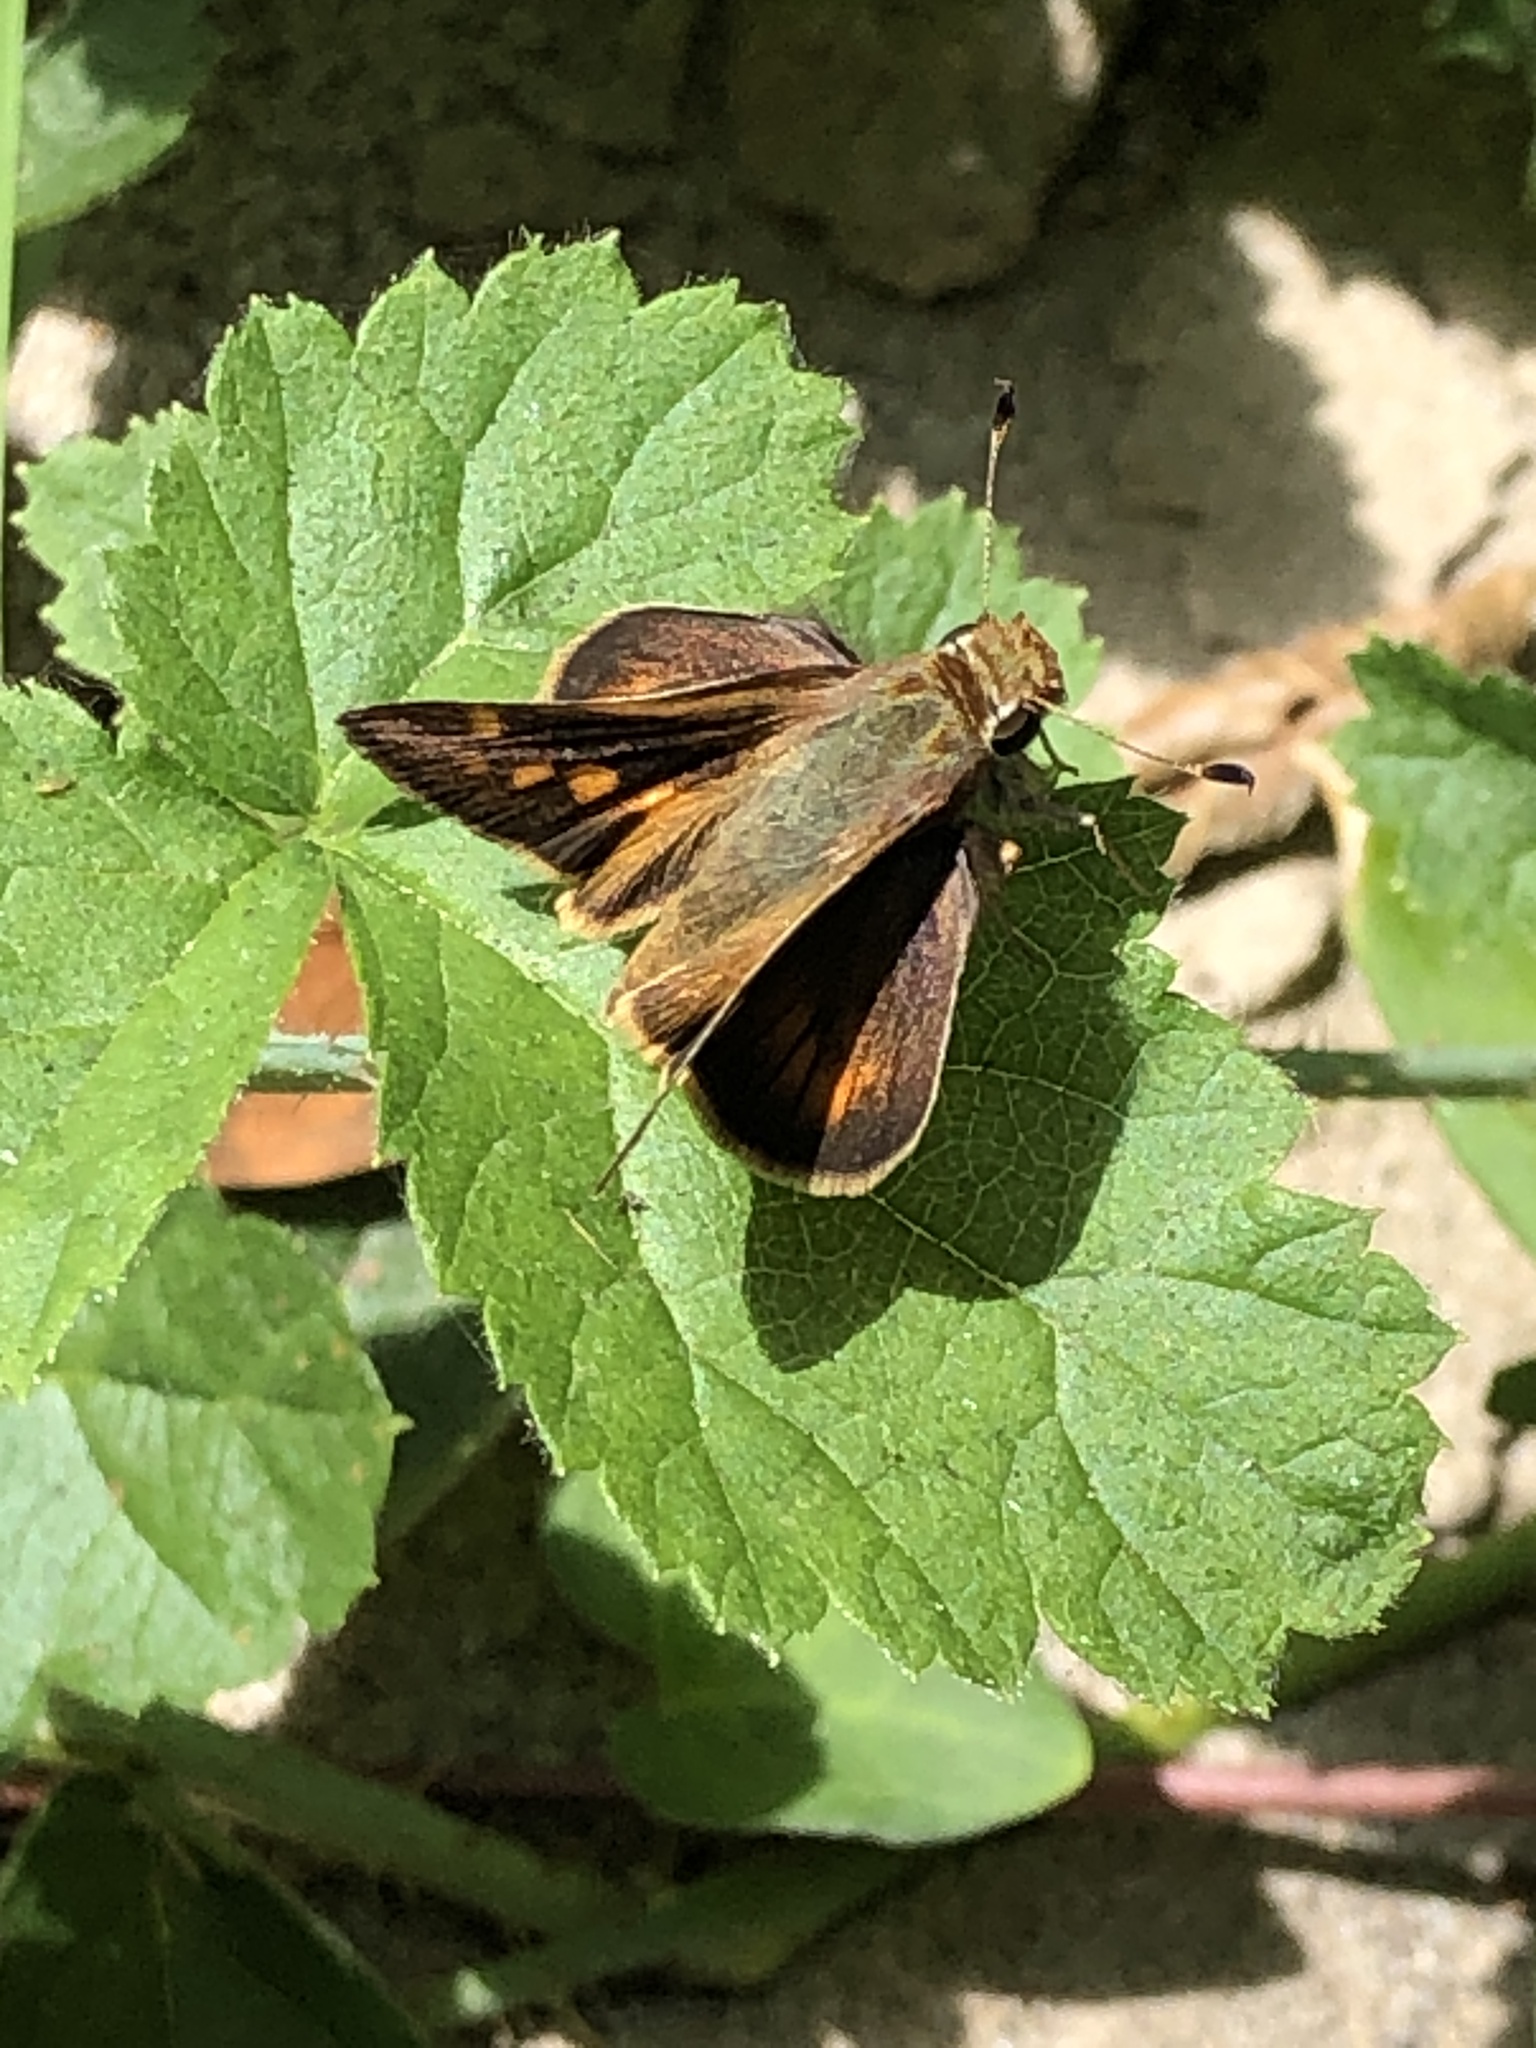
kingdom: Animalia
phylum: Arthropoda
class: Insecta
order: Lepidoptera
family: Hesperiidae
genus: Lon
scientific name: Lon melane
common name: Umber skipper
